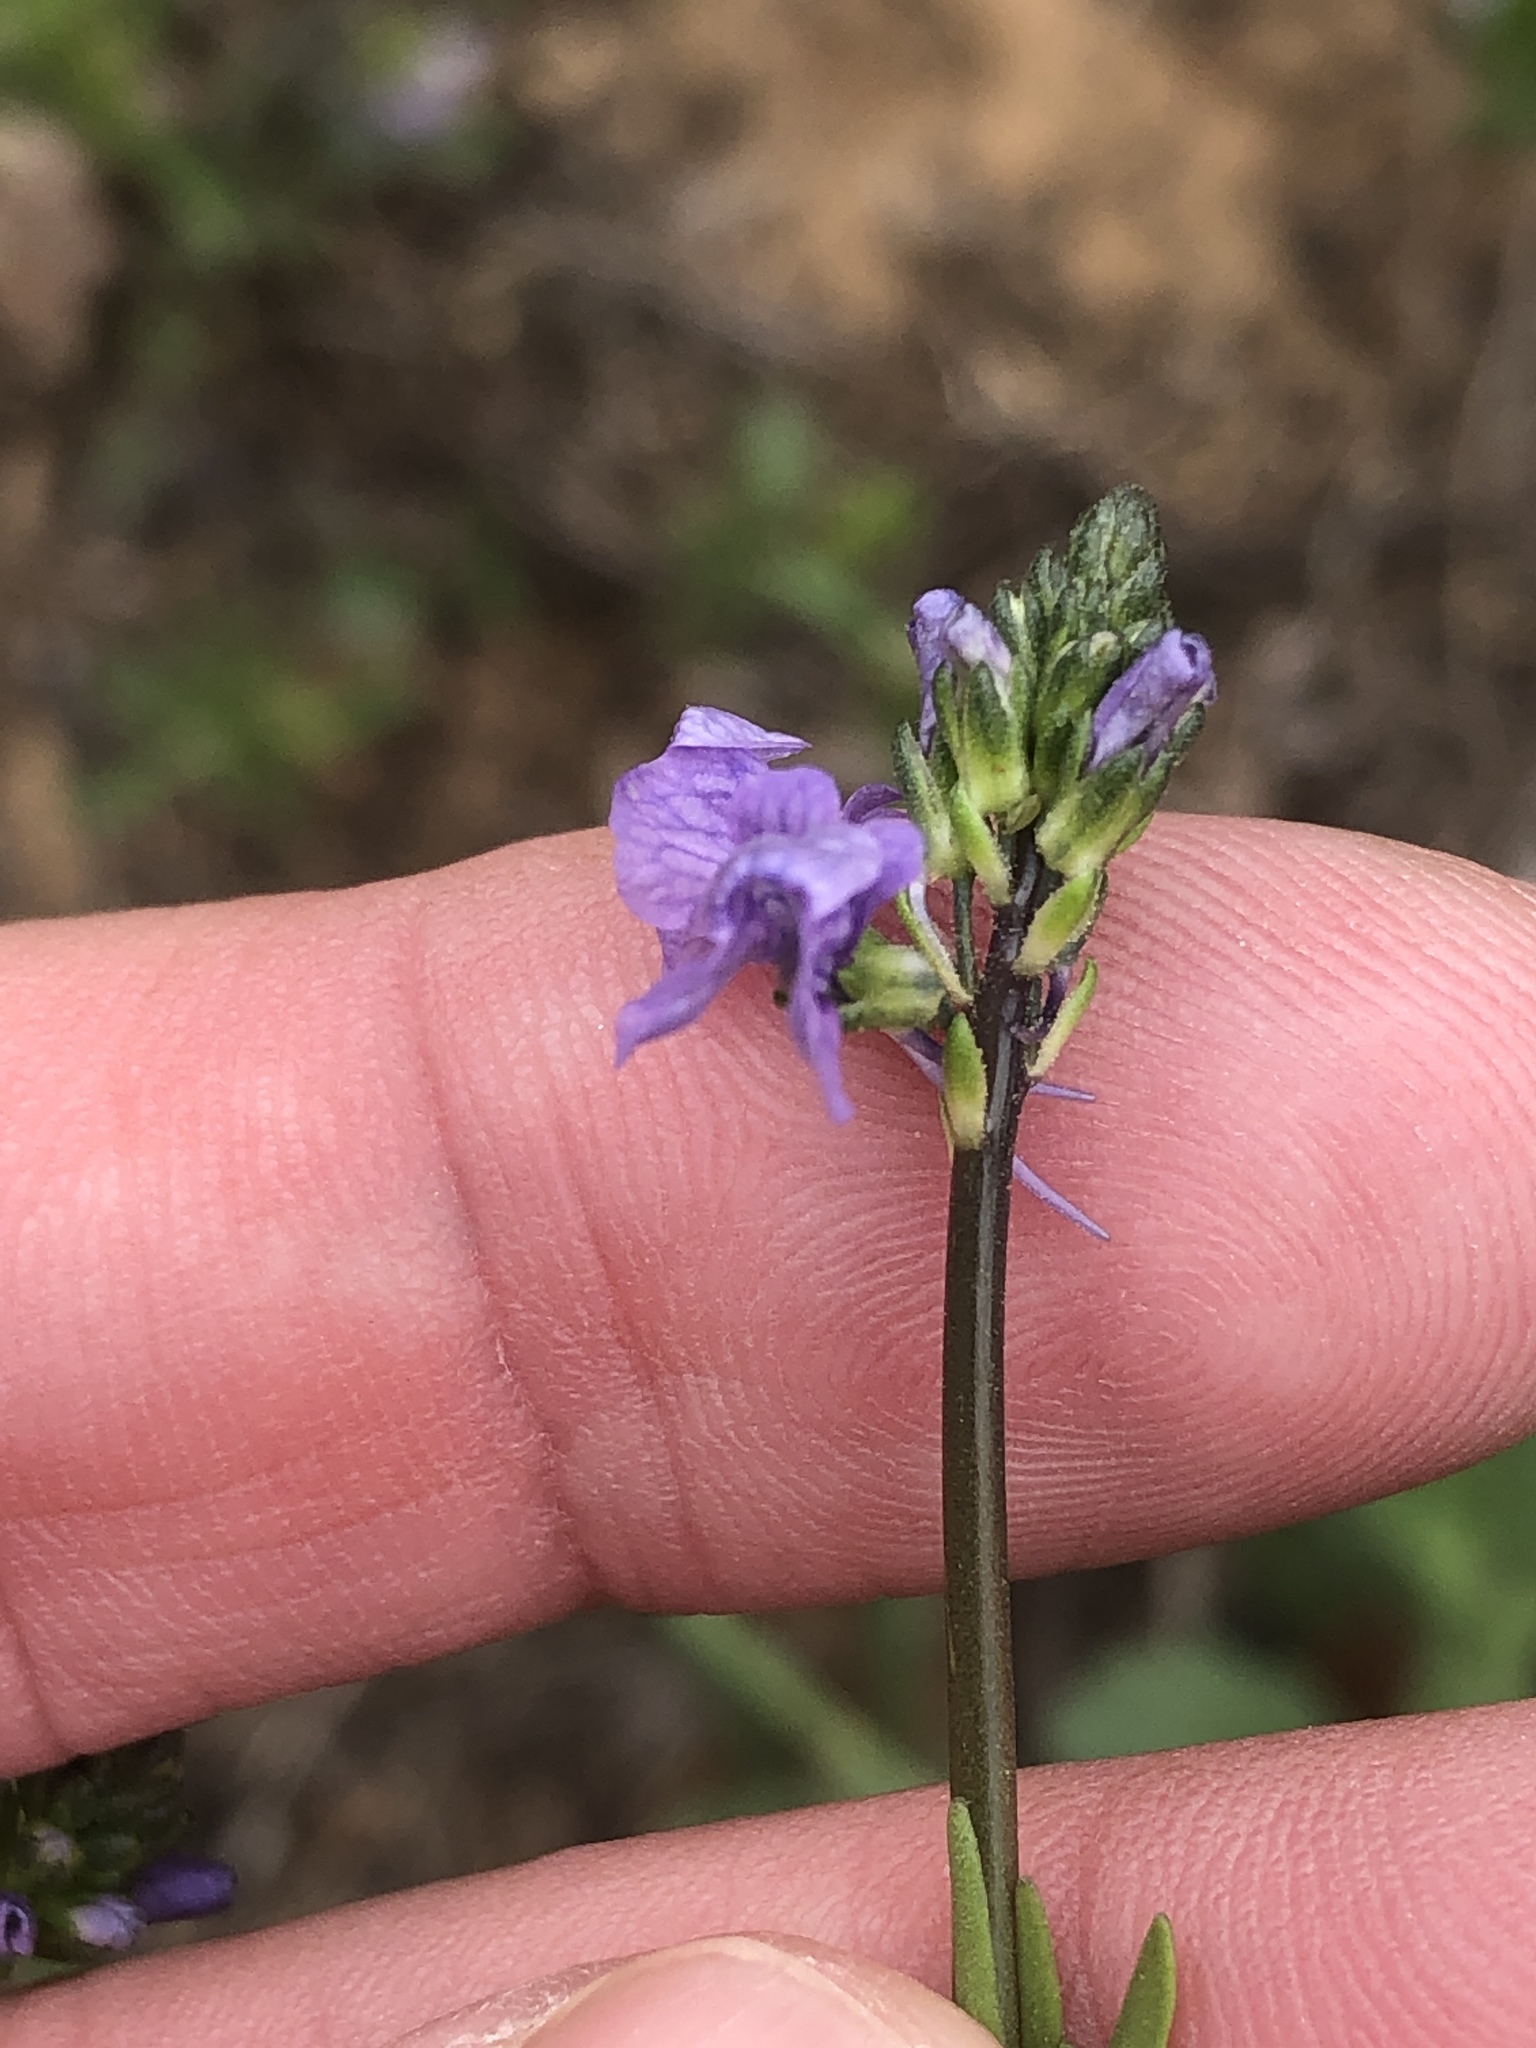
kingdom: Plantae
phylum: Tracheophyta
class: Magnoliopsida
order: Lamiales
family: Plantaginaceae
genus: Nuttallanthus
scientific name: Nuttallanthus texanus
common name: Texas toadflax
